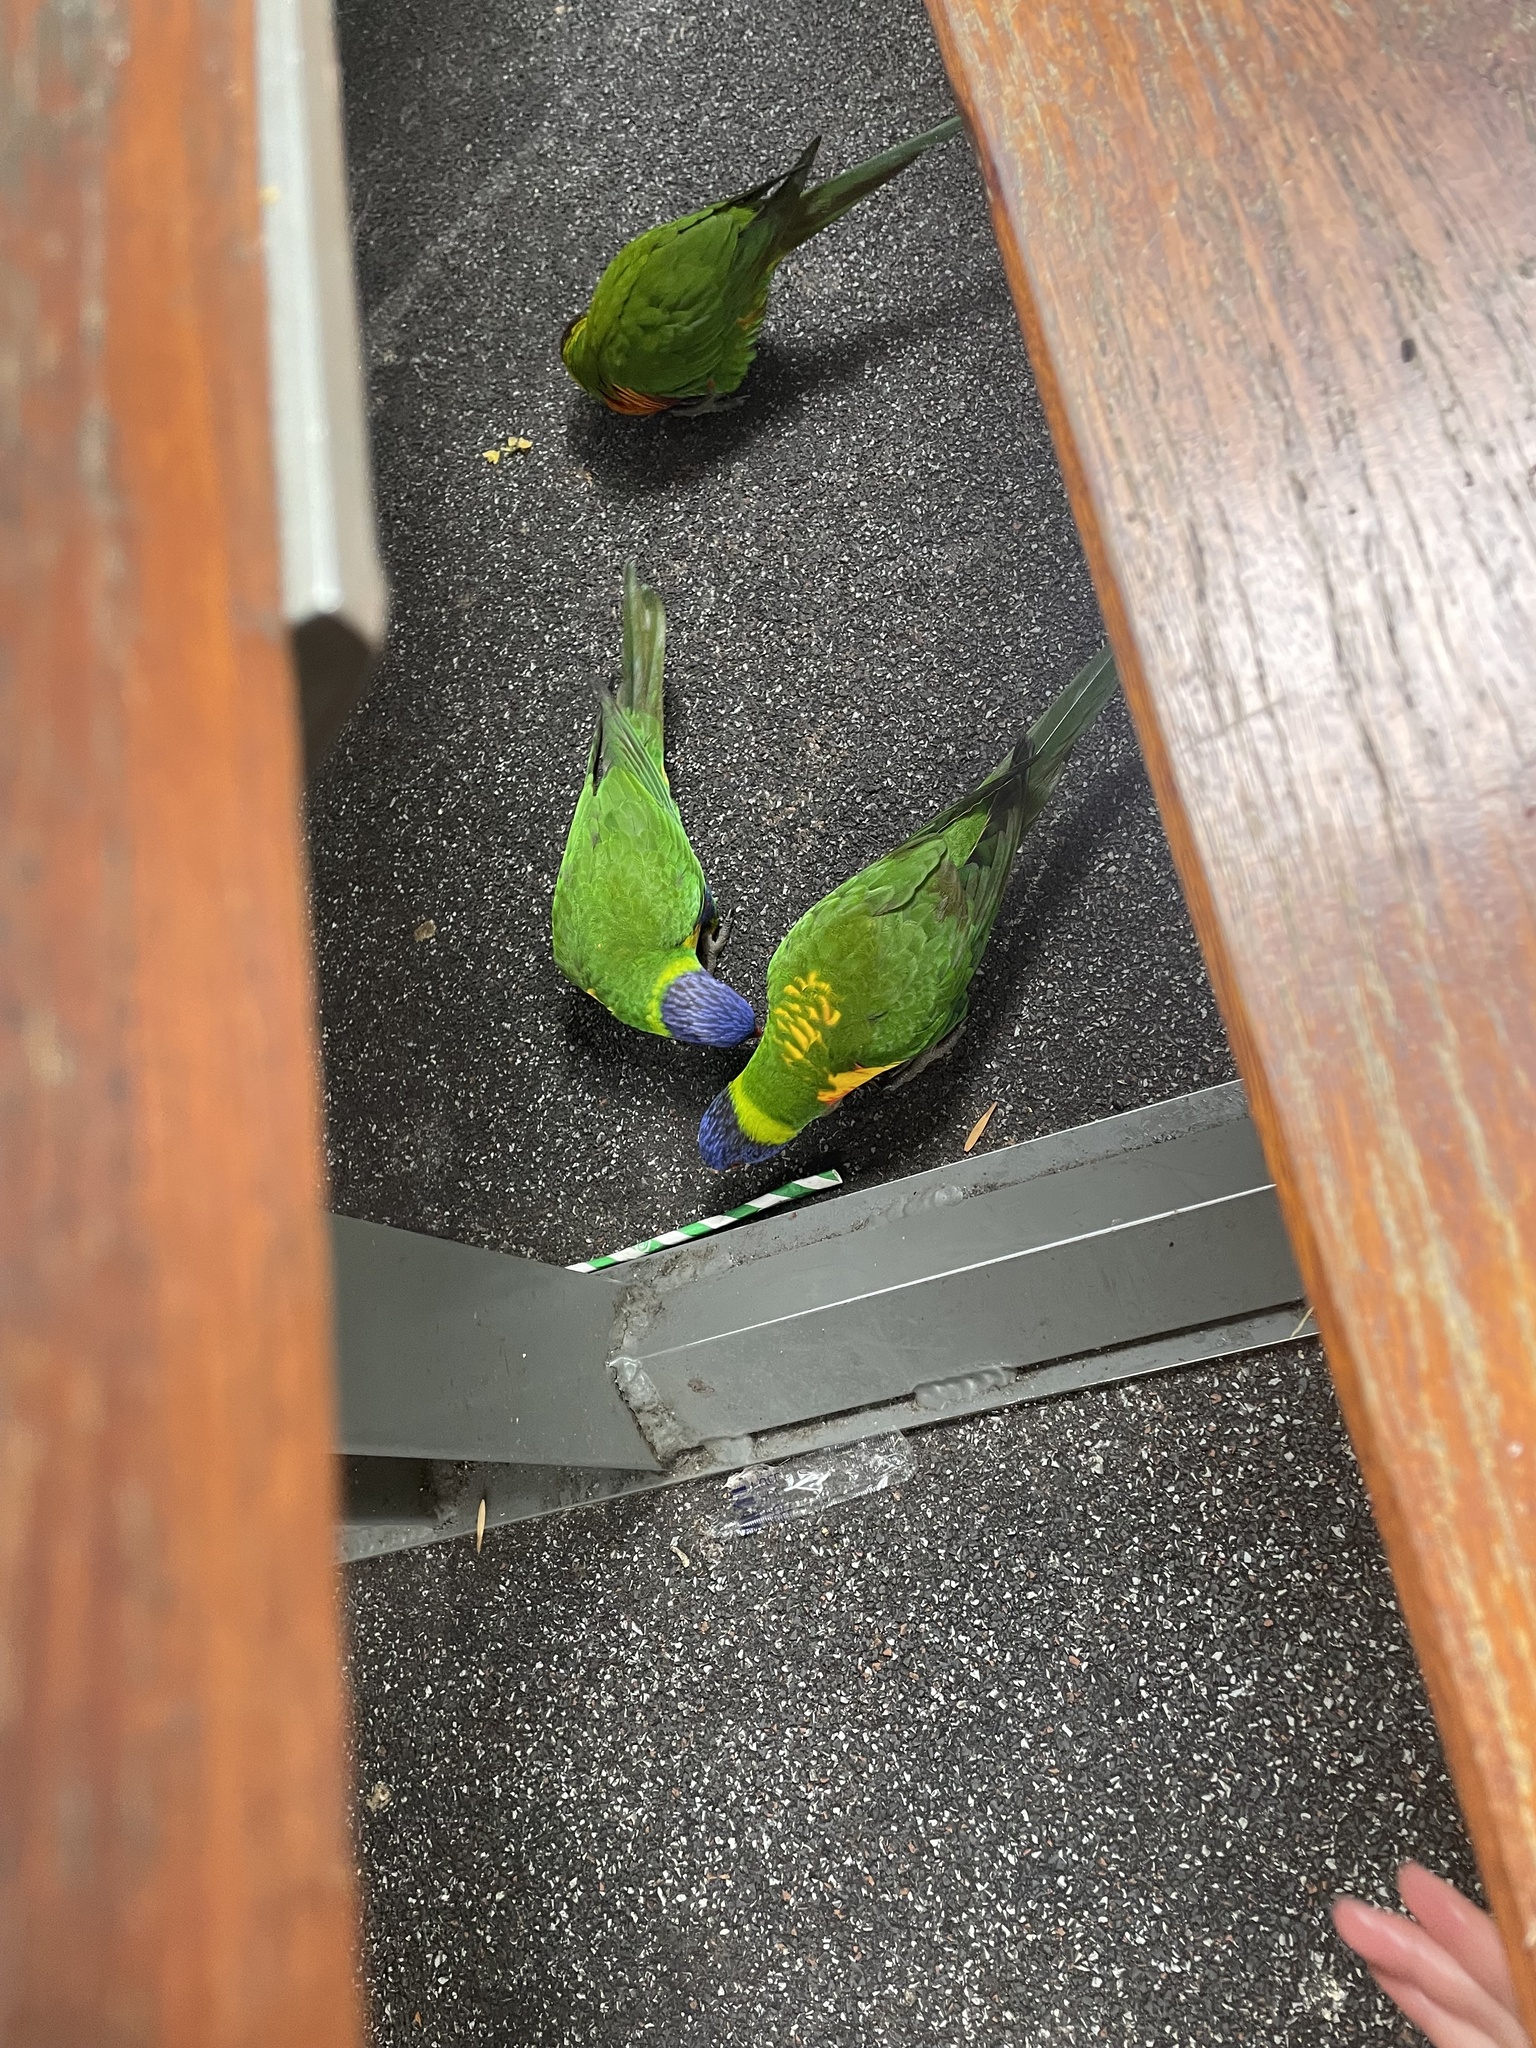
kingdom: Animalia
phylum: Chordata
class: Aves
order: Psittaciformes
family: Psittacidae
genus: Trichoglossus
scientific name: Trichoglossus haematodus
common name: Coconut lorikeet
